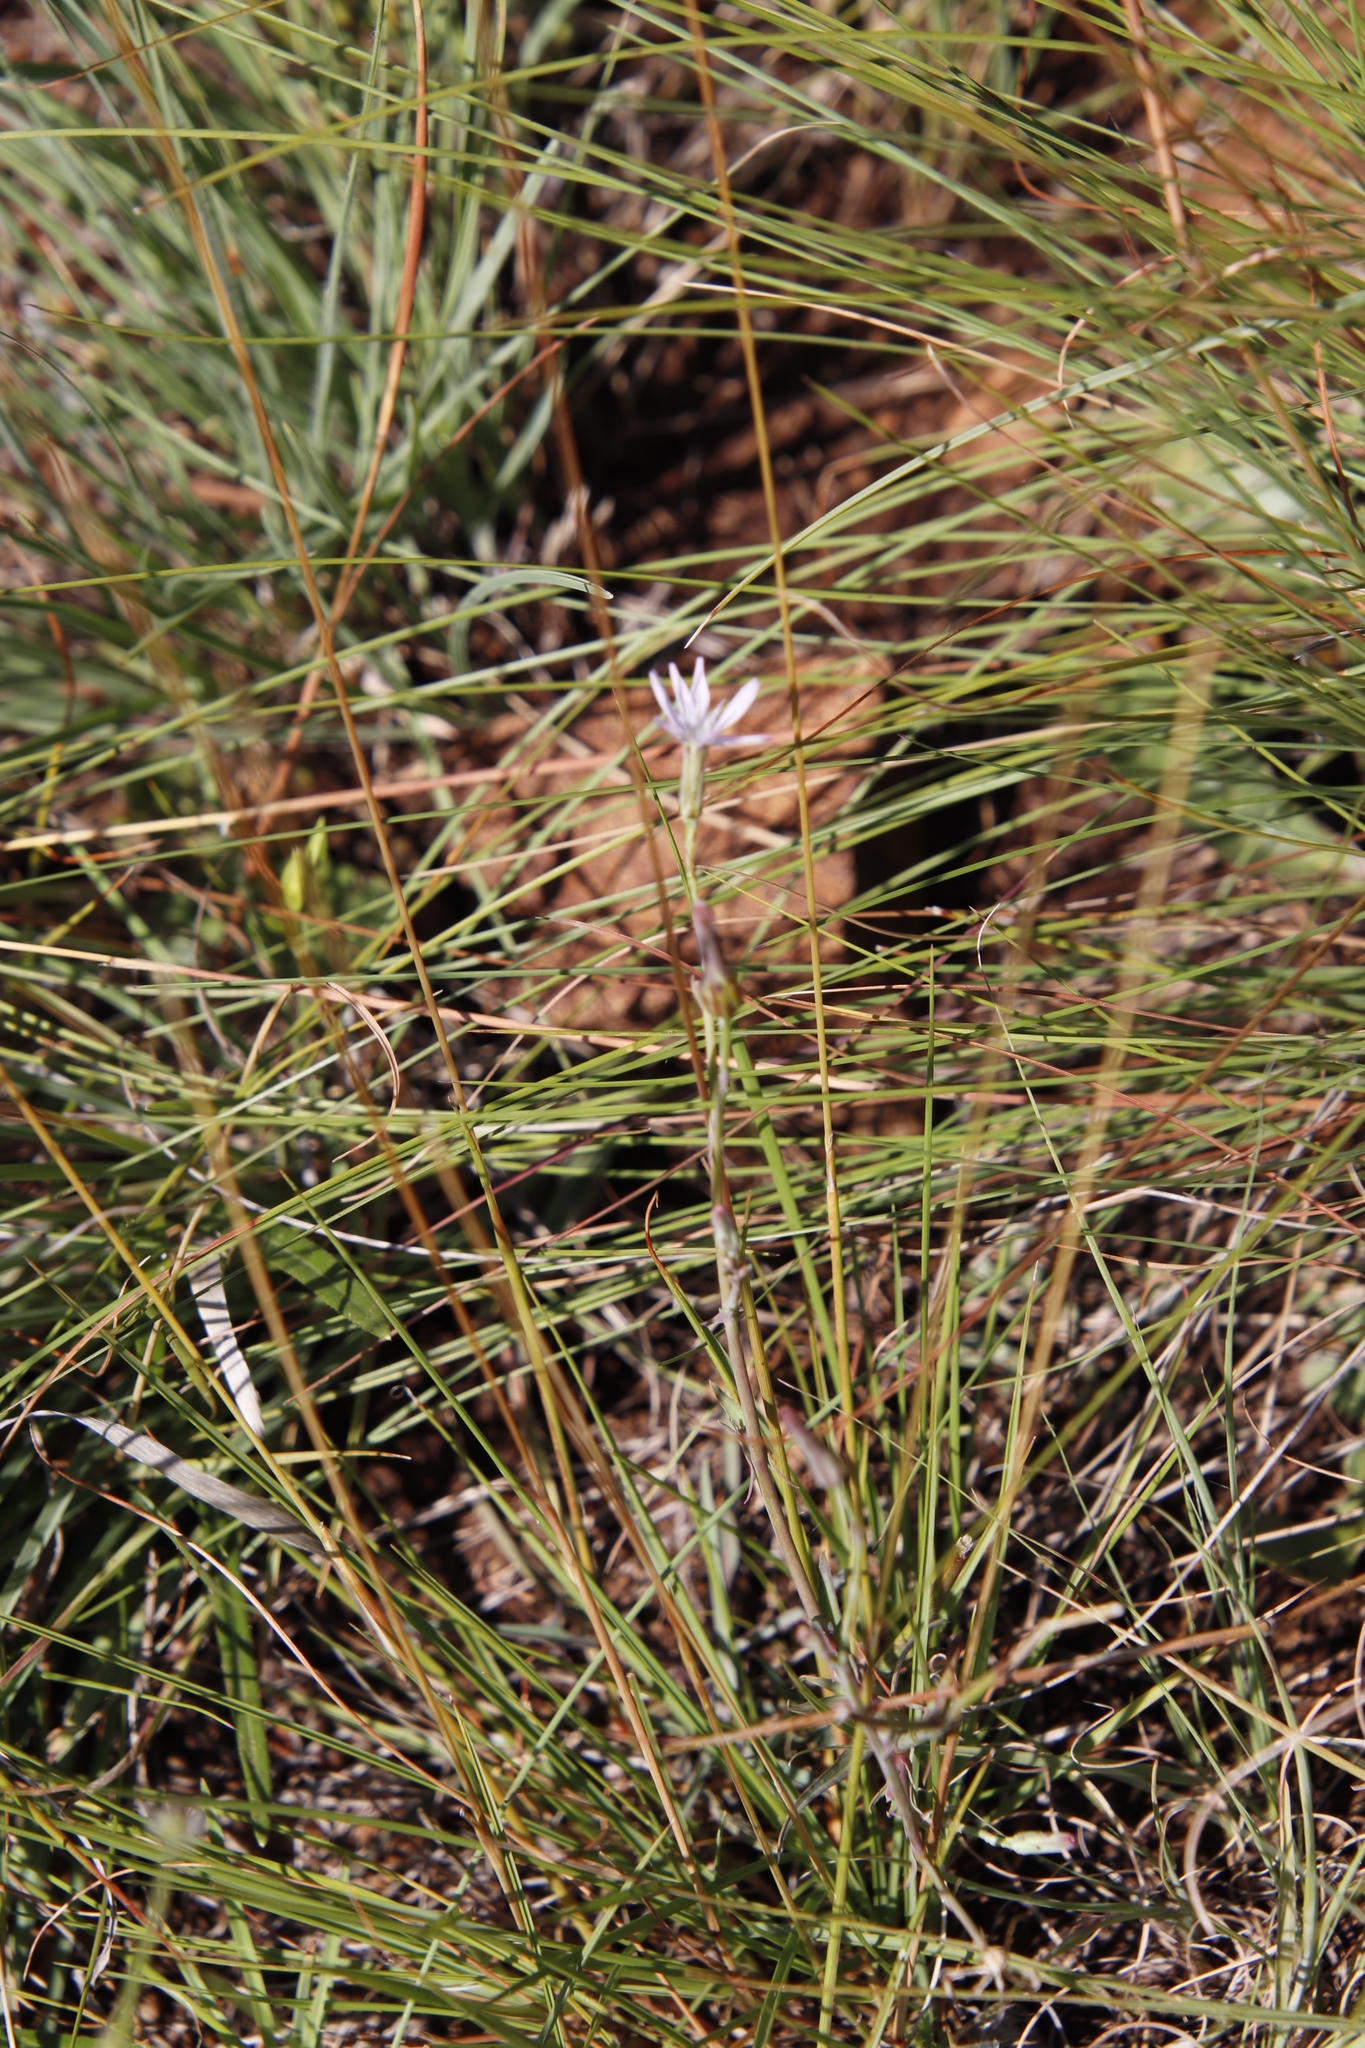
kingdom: Plantae
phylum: Tracheophyta
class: Magnoliopsida
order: Asterales
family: Asteraceae
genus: Lactuca
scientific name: Lactuca inermis
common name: Wild lettuce
